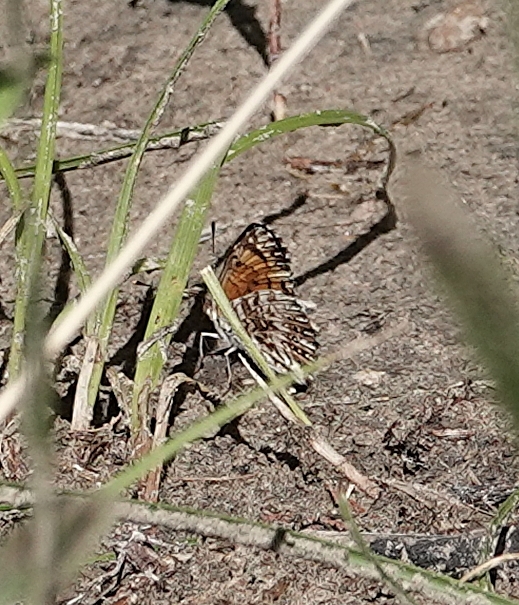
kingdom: Animalia
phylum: Arthropoda
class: Insecta
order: Lepidoptera
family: Nymphalidae
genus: Chlosyne
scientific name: Chlosyne gorgone
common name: Gorgone checkerspot
